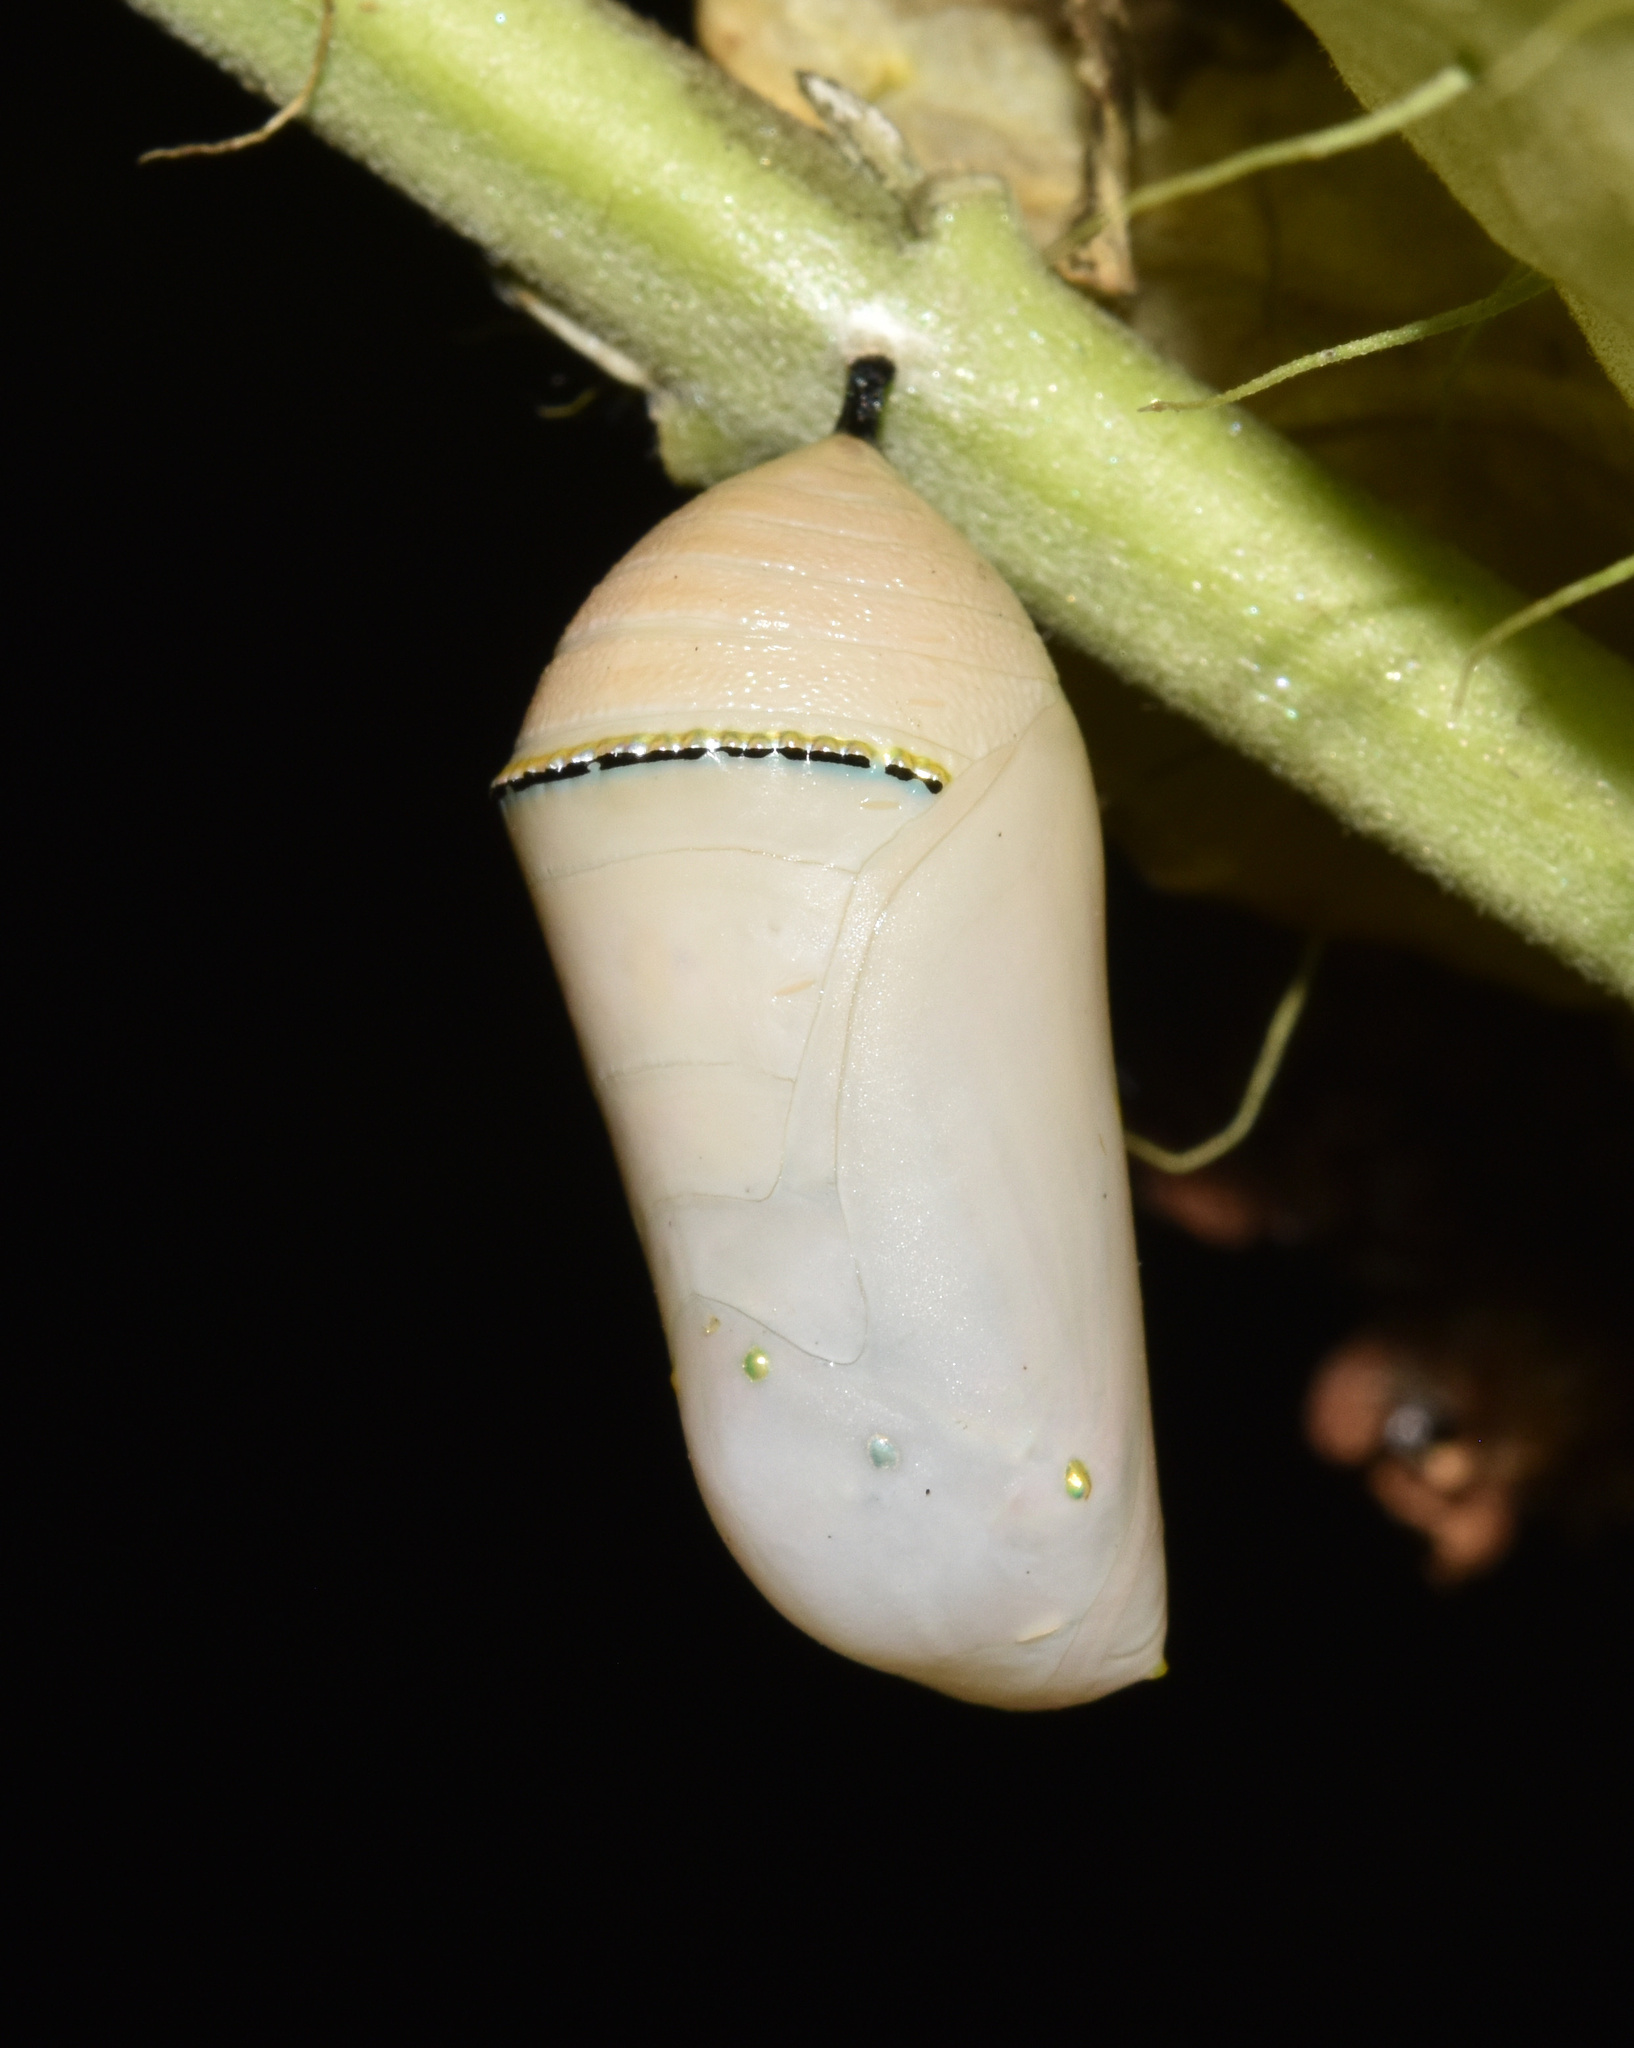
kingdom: Animalia
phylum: Arthropoda
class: Insecta
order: Lepidoptera
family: Nymphalidae
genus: Danaus
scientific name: Danaus chrysippus
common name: Plain tiger
